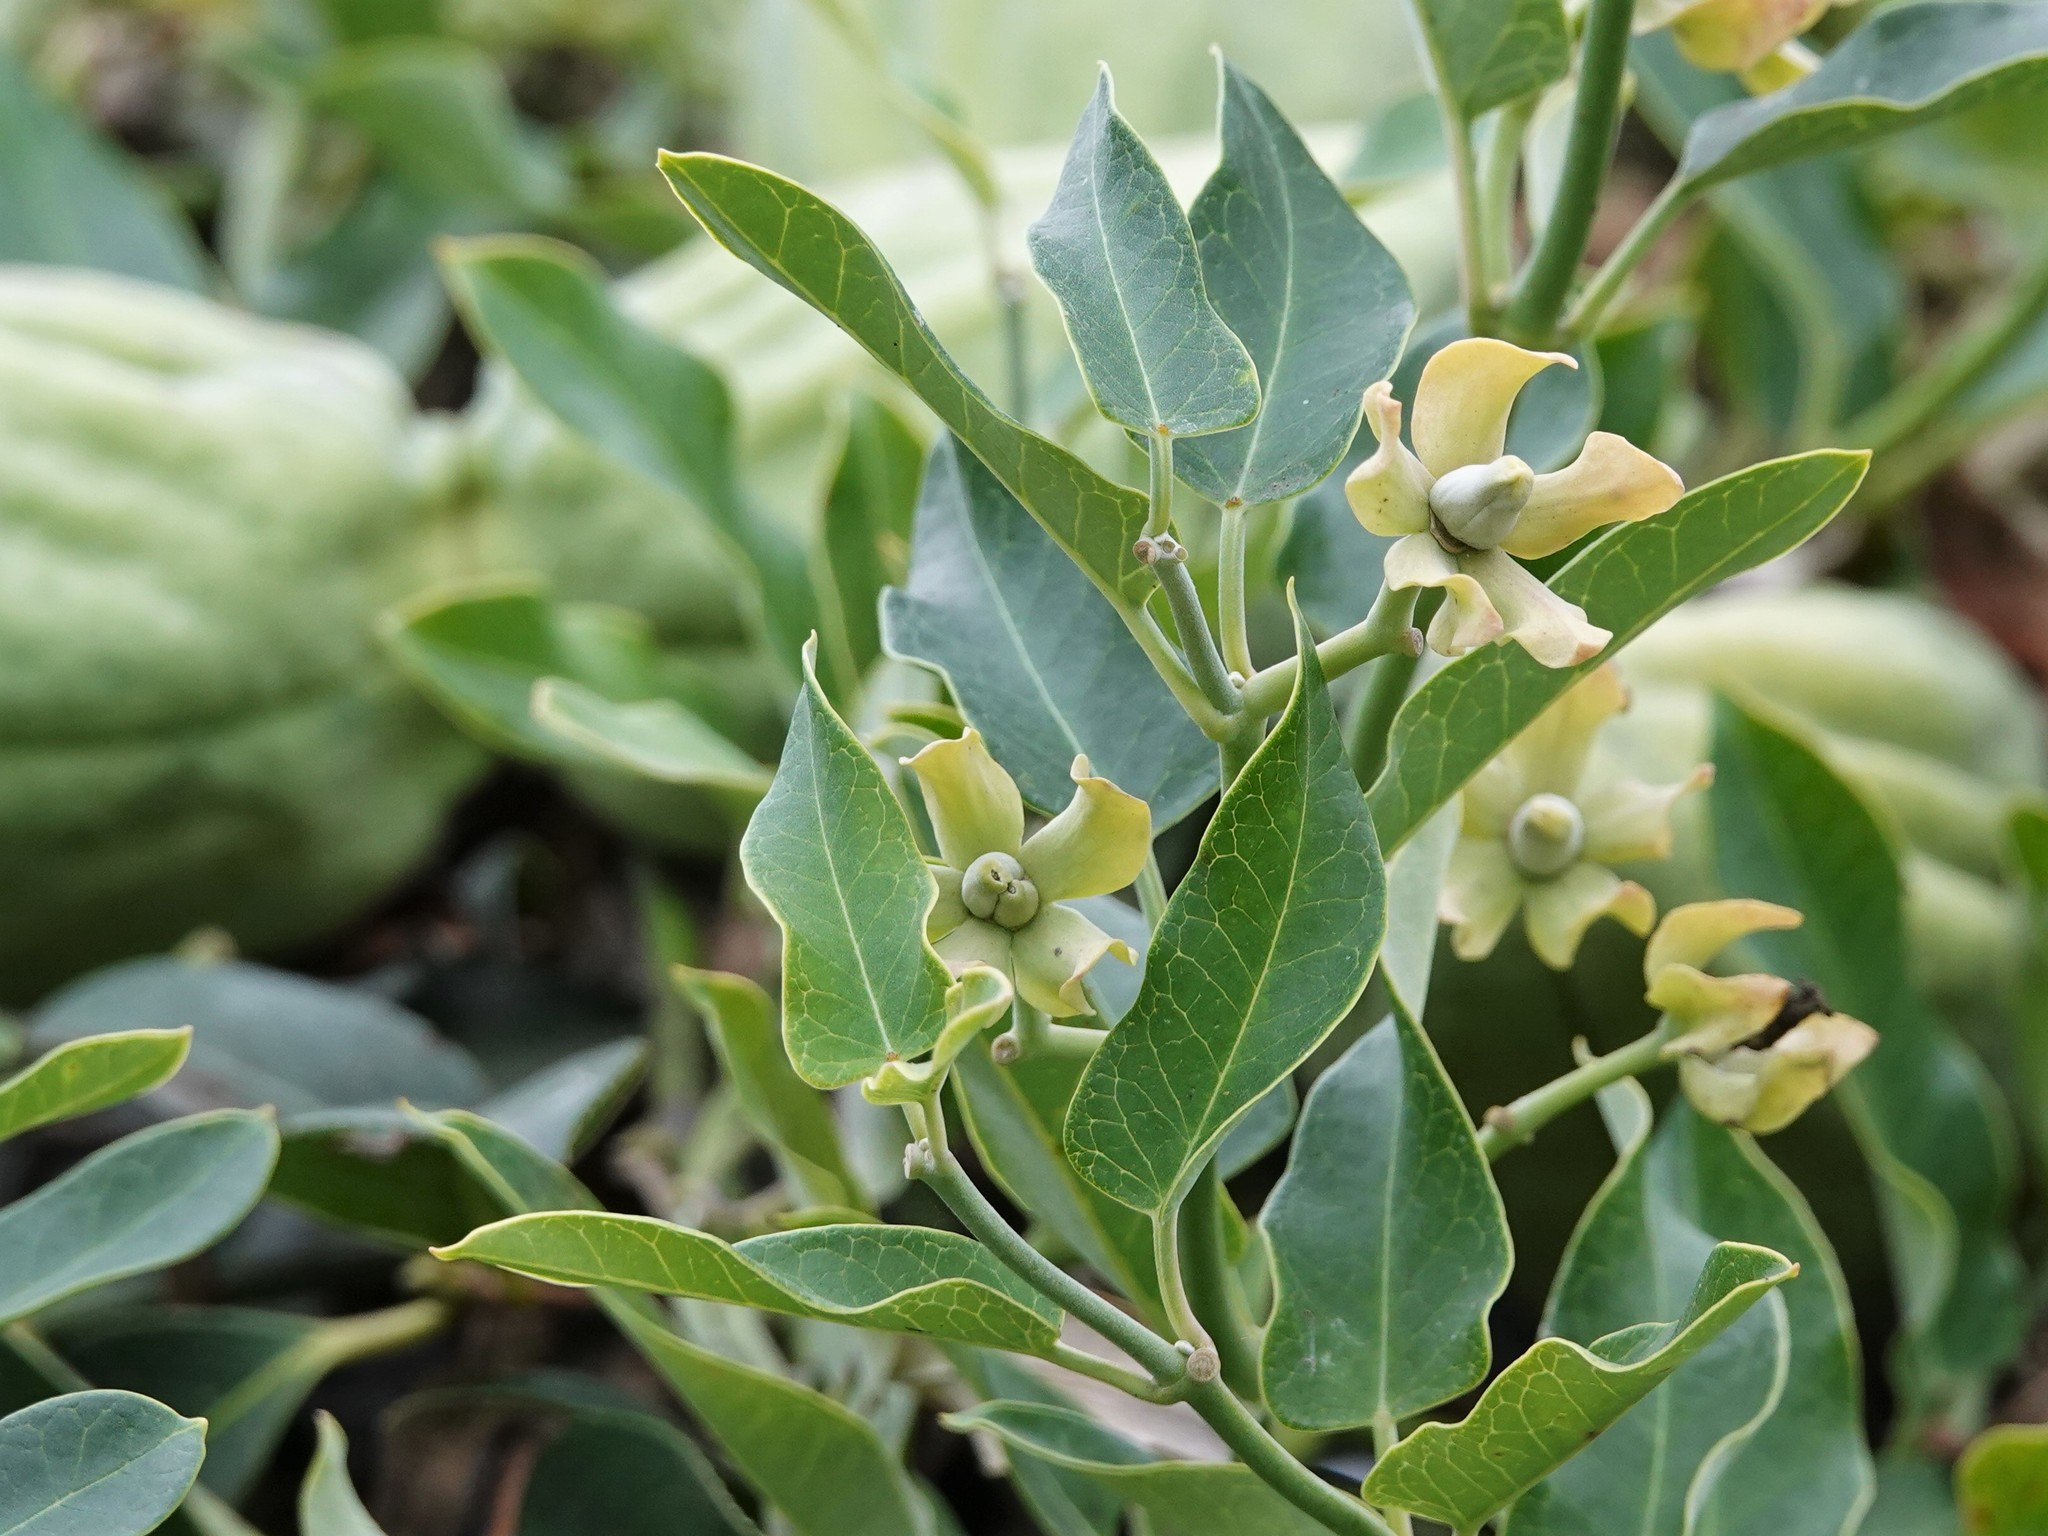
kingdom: Plantae
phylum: Tracheophyta
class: Magnoliopsida
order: Gentianales
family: Apocynaceae
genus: Araujia
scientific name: Araujia sericifera
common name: White bladderflower
